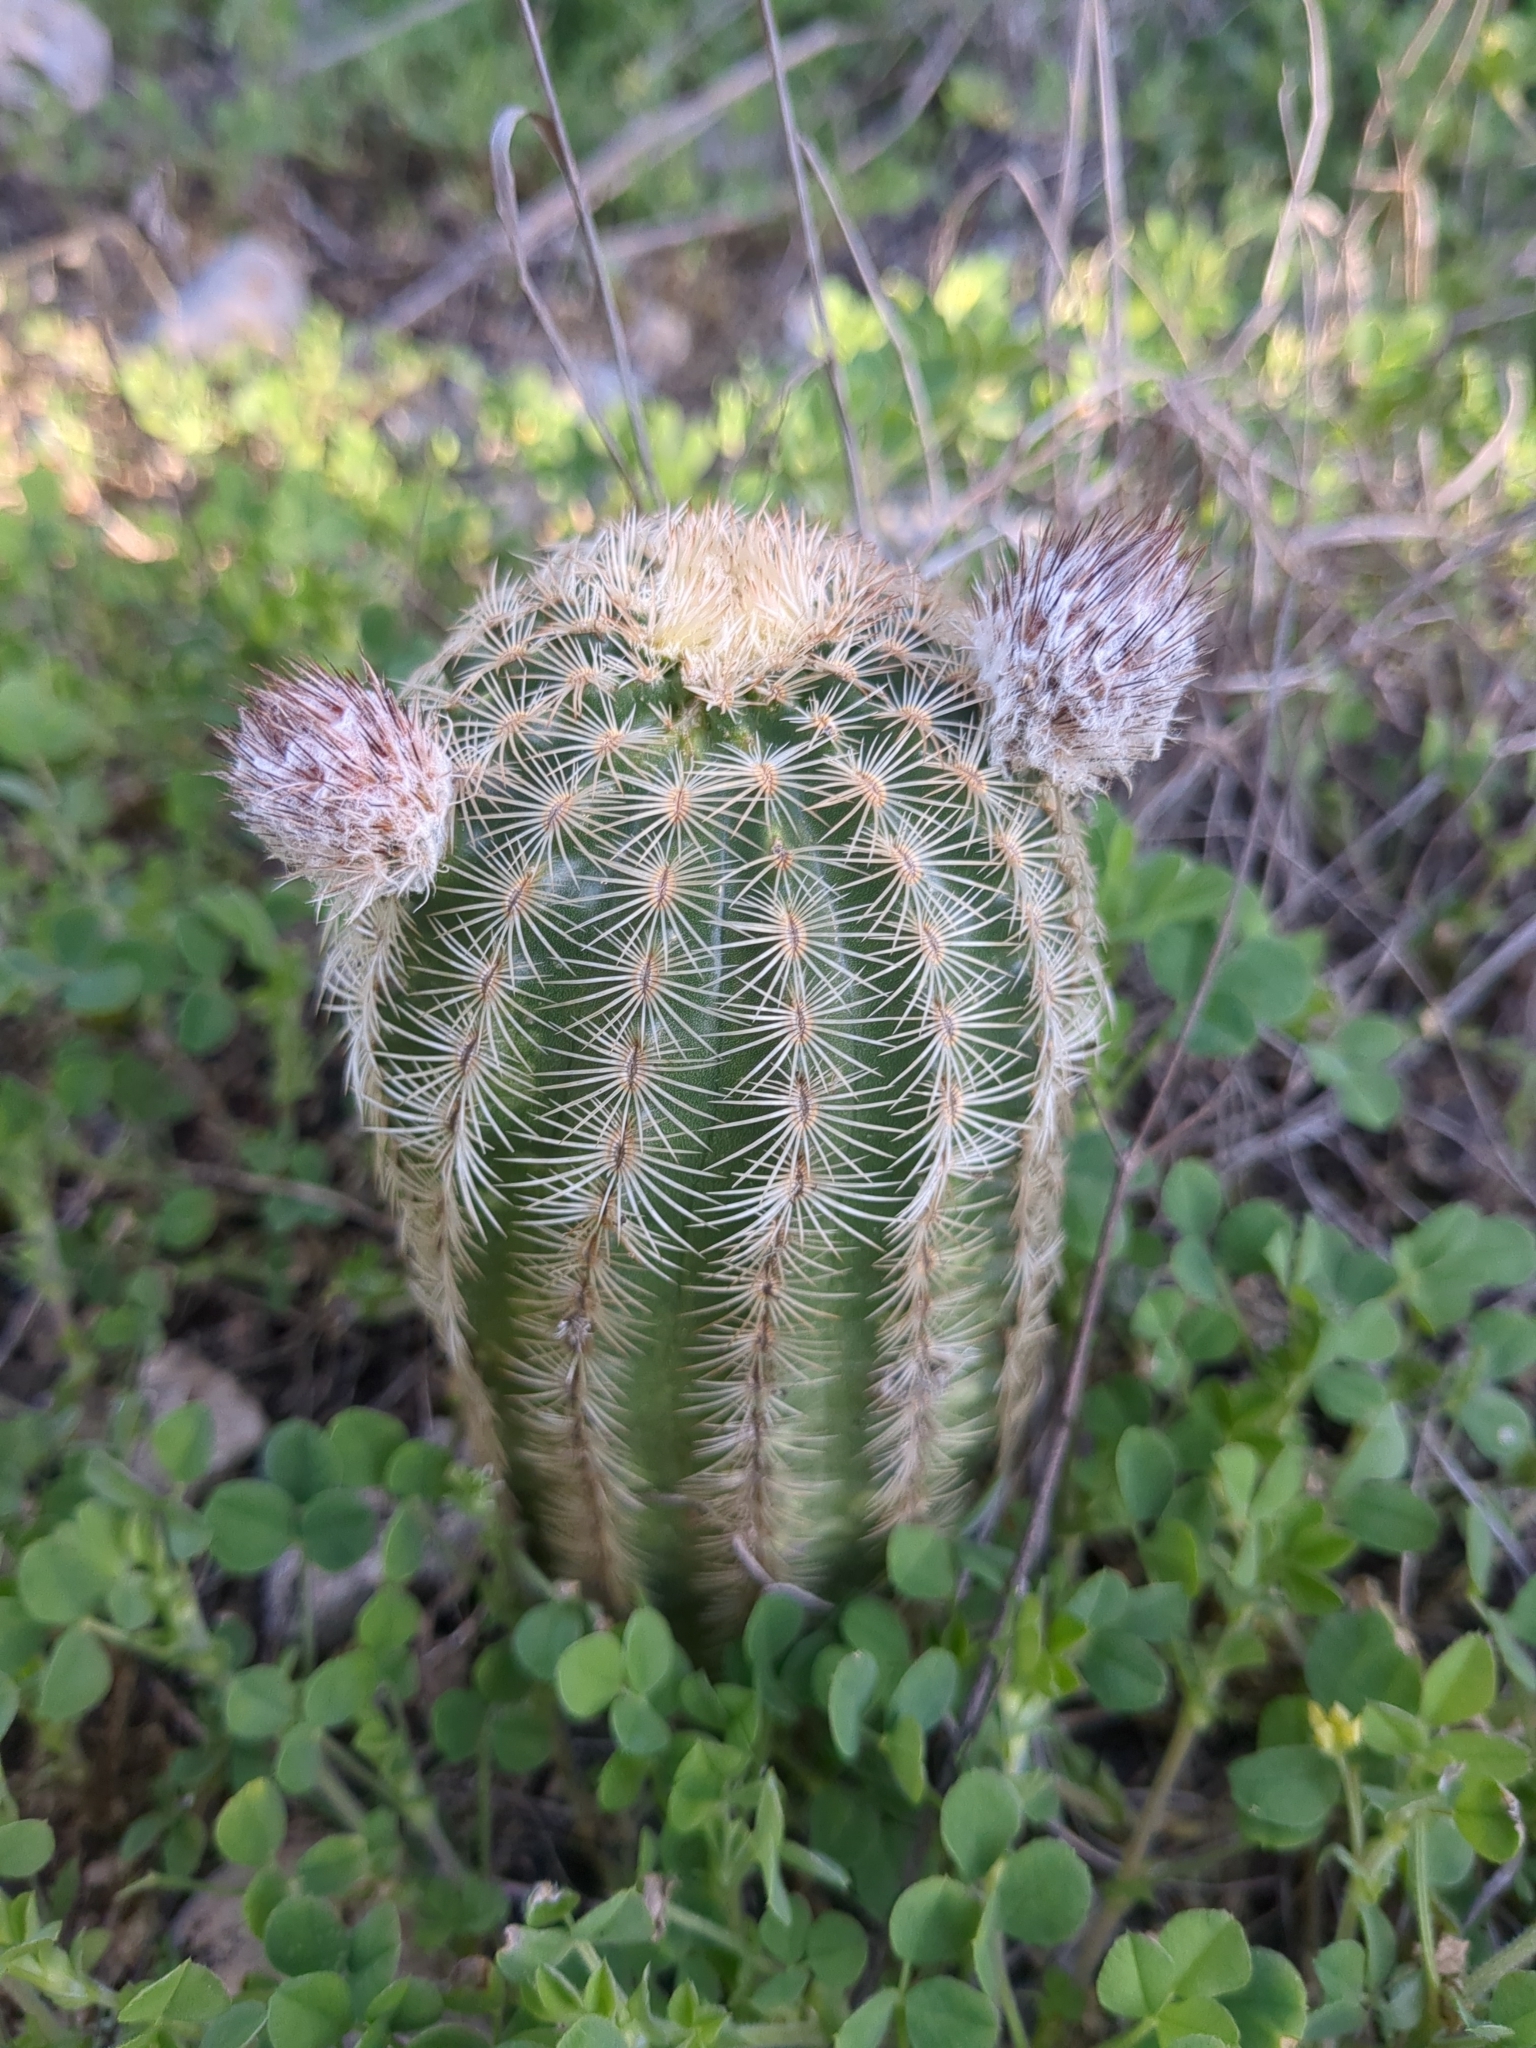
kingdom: Plantae
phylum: Tracheophyta
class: Magnoliopsida
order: Caryophyllales
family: Cactaceae
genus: Echinocereus
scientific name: Echinocereus reichenbachii
